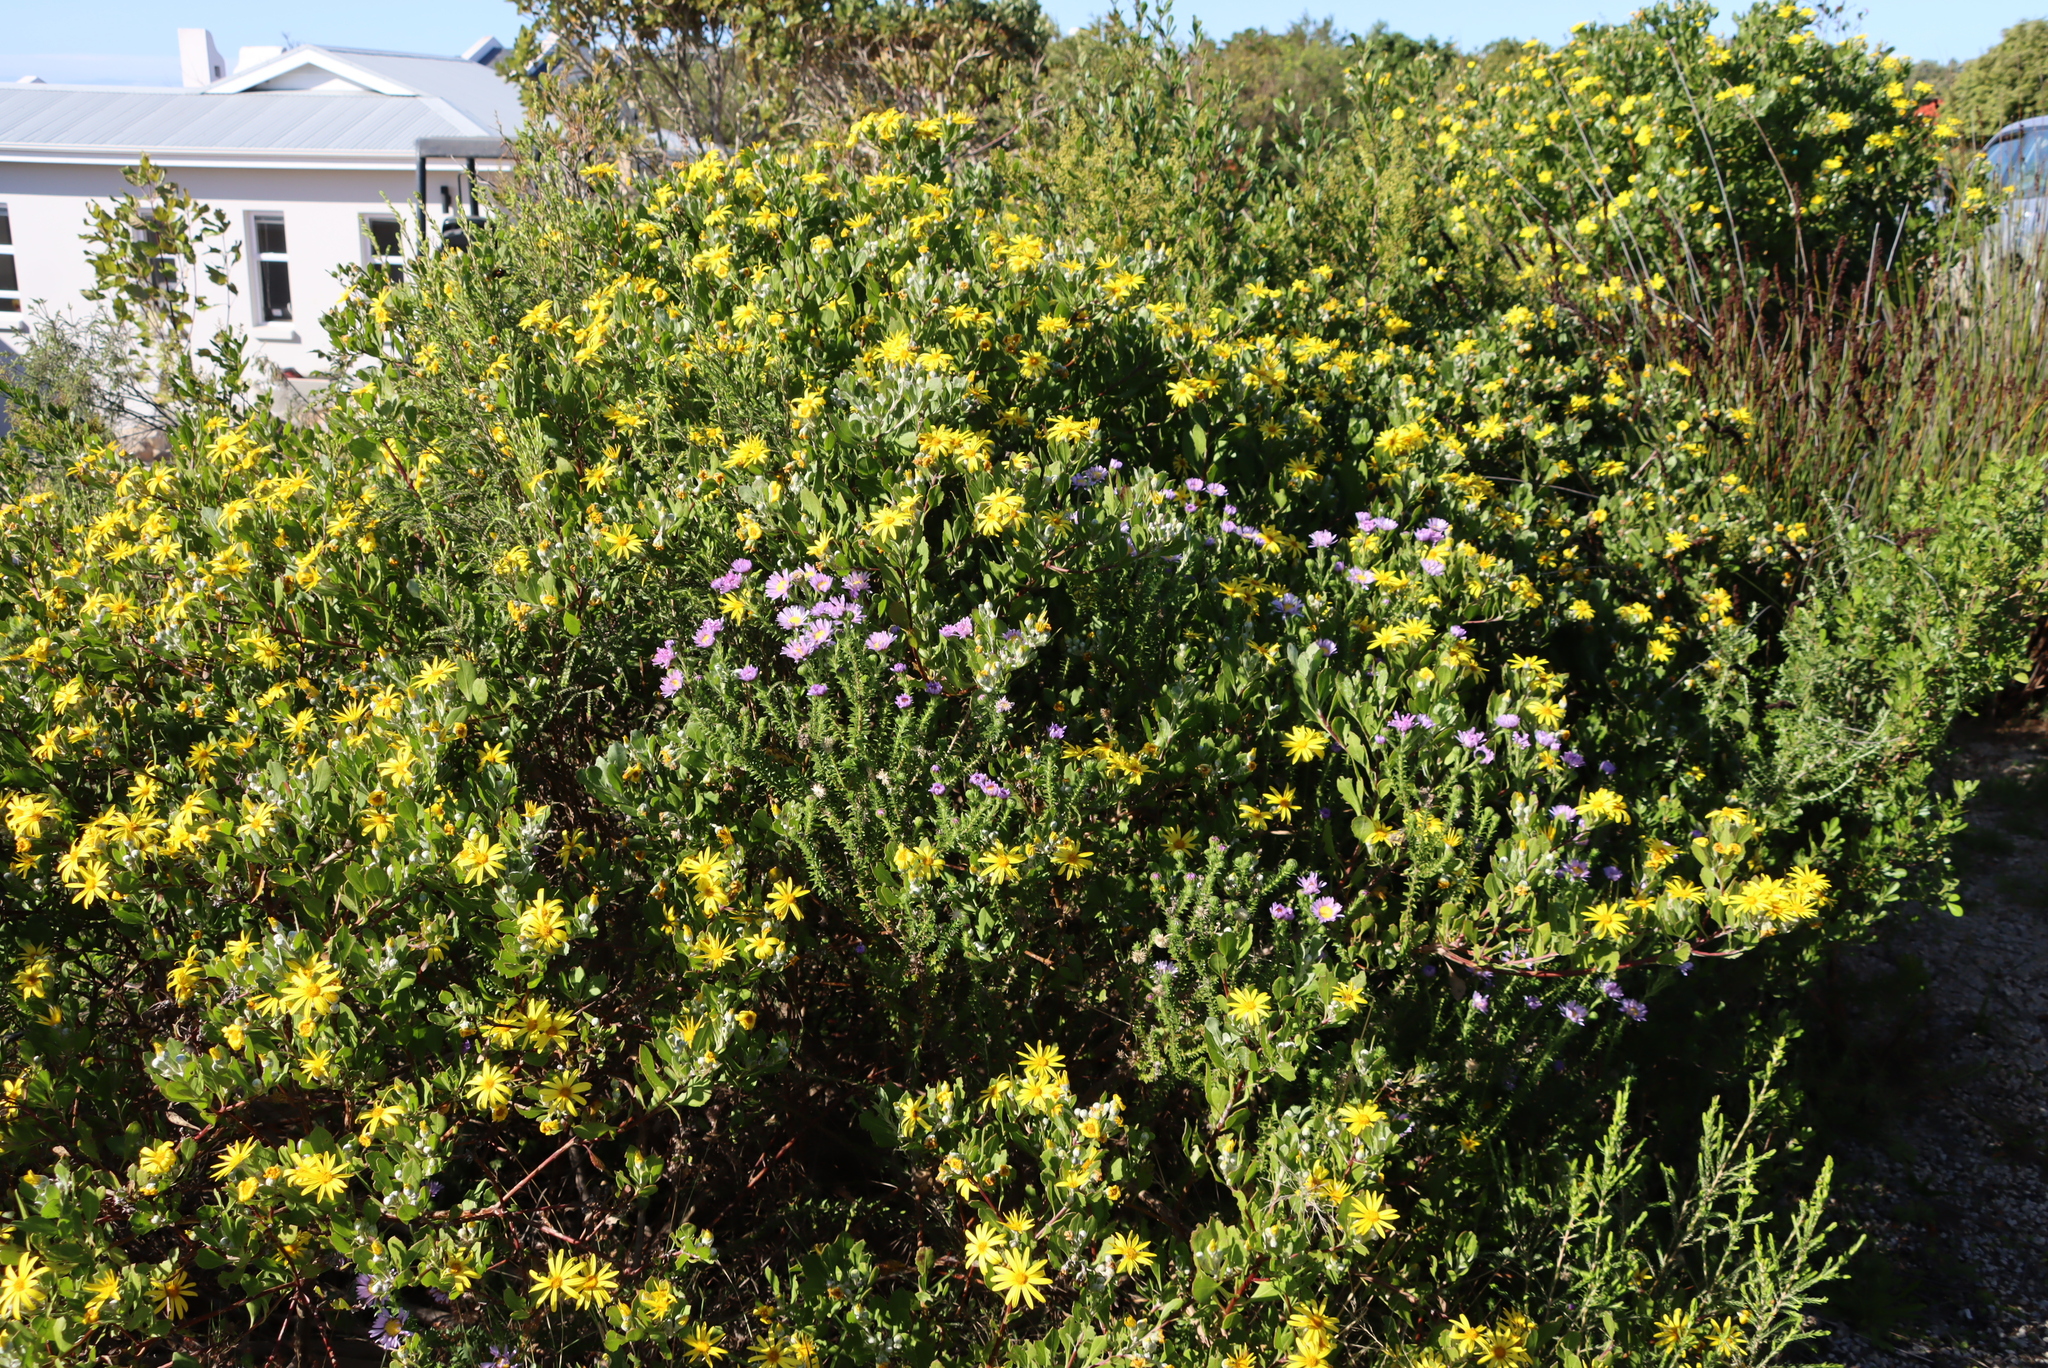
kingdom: Plantae
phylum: Tracheophyta
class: Magnoliopsida
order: Asterales
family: Asteraceae
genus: Osteospermum
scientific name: Osteospermum moniliferum
